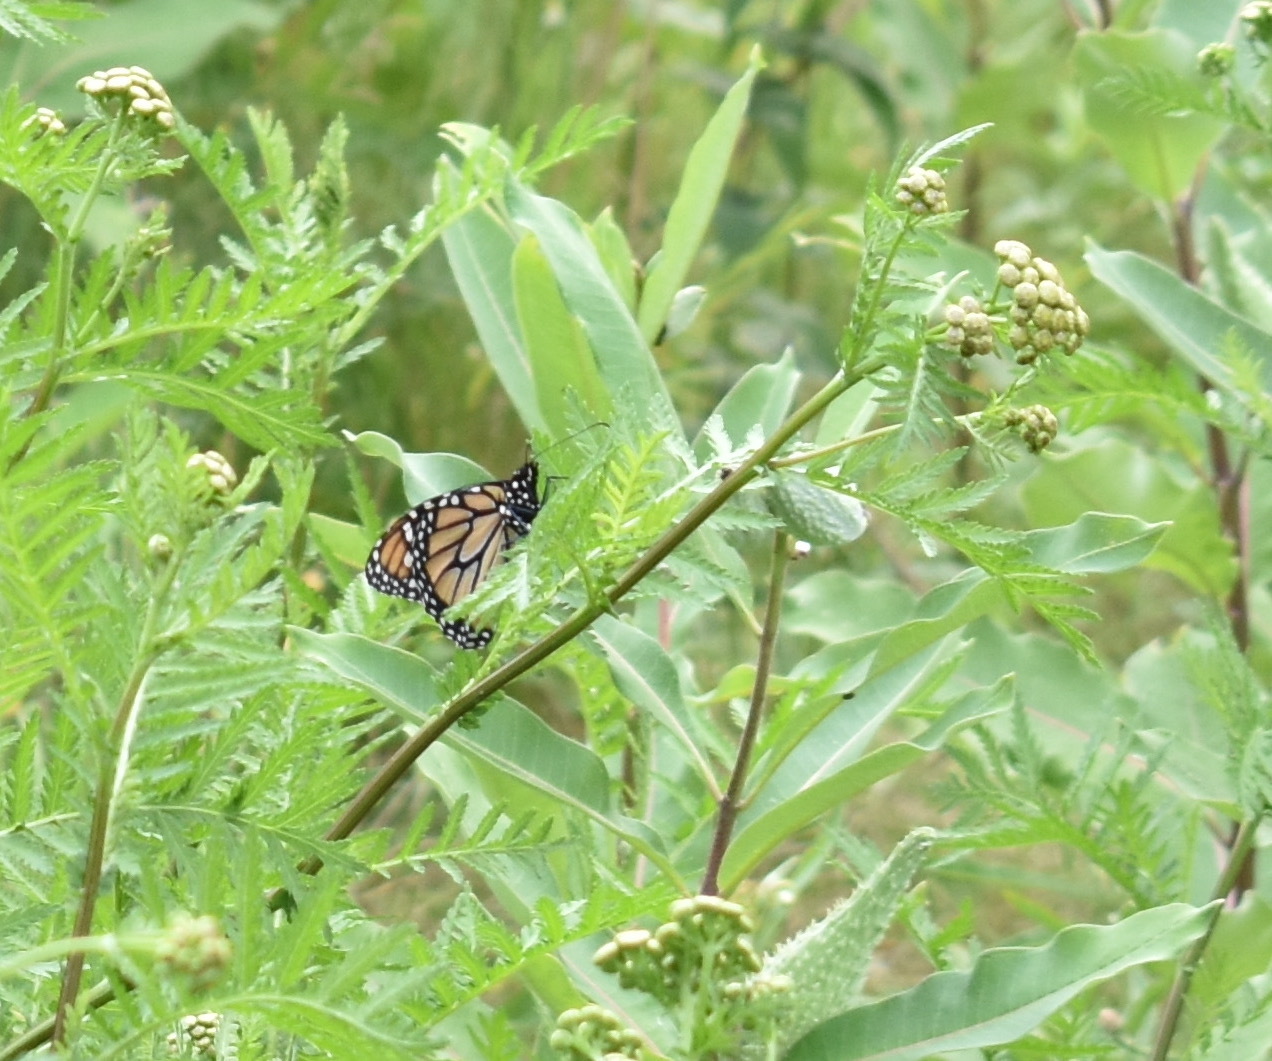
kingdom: Animalia
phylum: Arthropoda
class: Insecta
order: Lepidoptera
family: Nymphalidae
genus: Danaus
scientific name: Danaus plexippus
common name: Monarch
